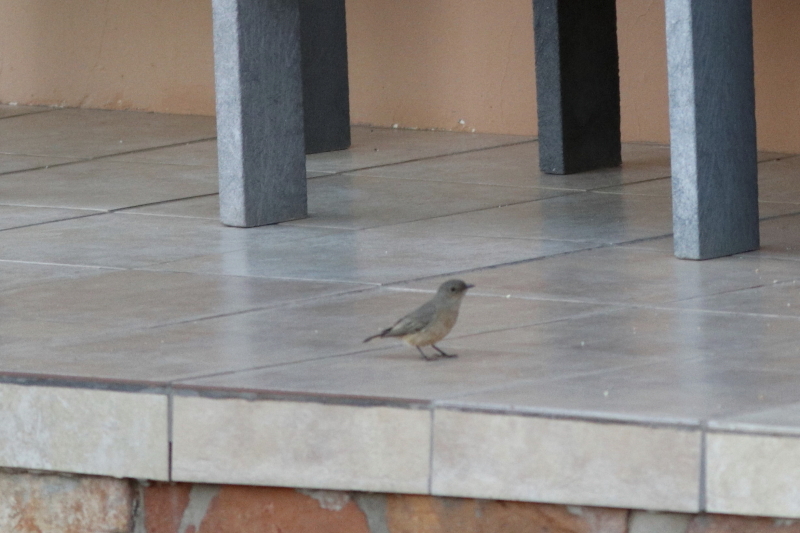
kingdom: Animalia
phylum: Chordata
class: Aves
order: Passeriformes
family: Muscicapidae
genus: Oenanthe
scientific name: Oenanthe familiaris
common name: Familiar chat
